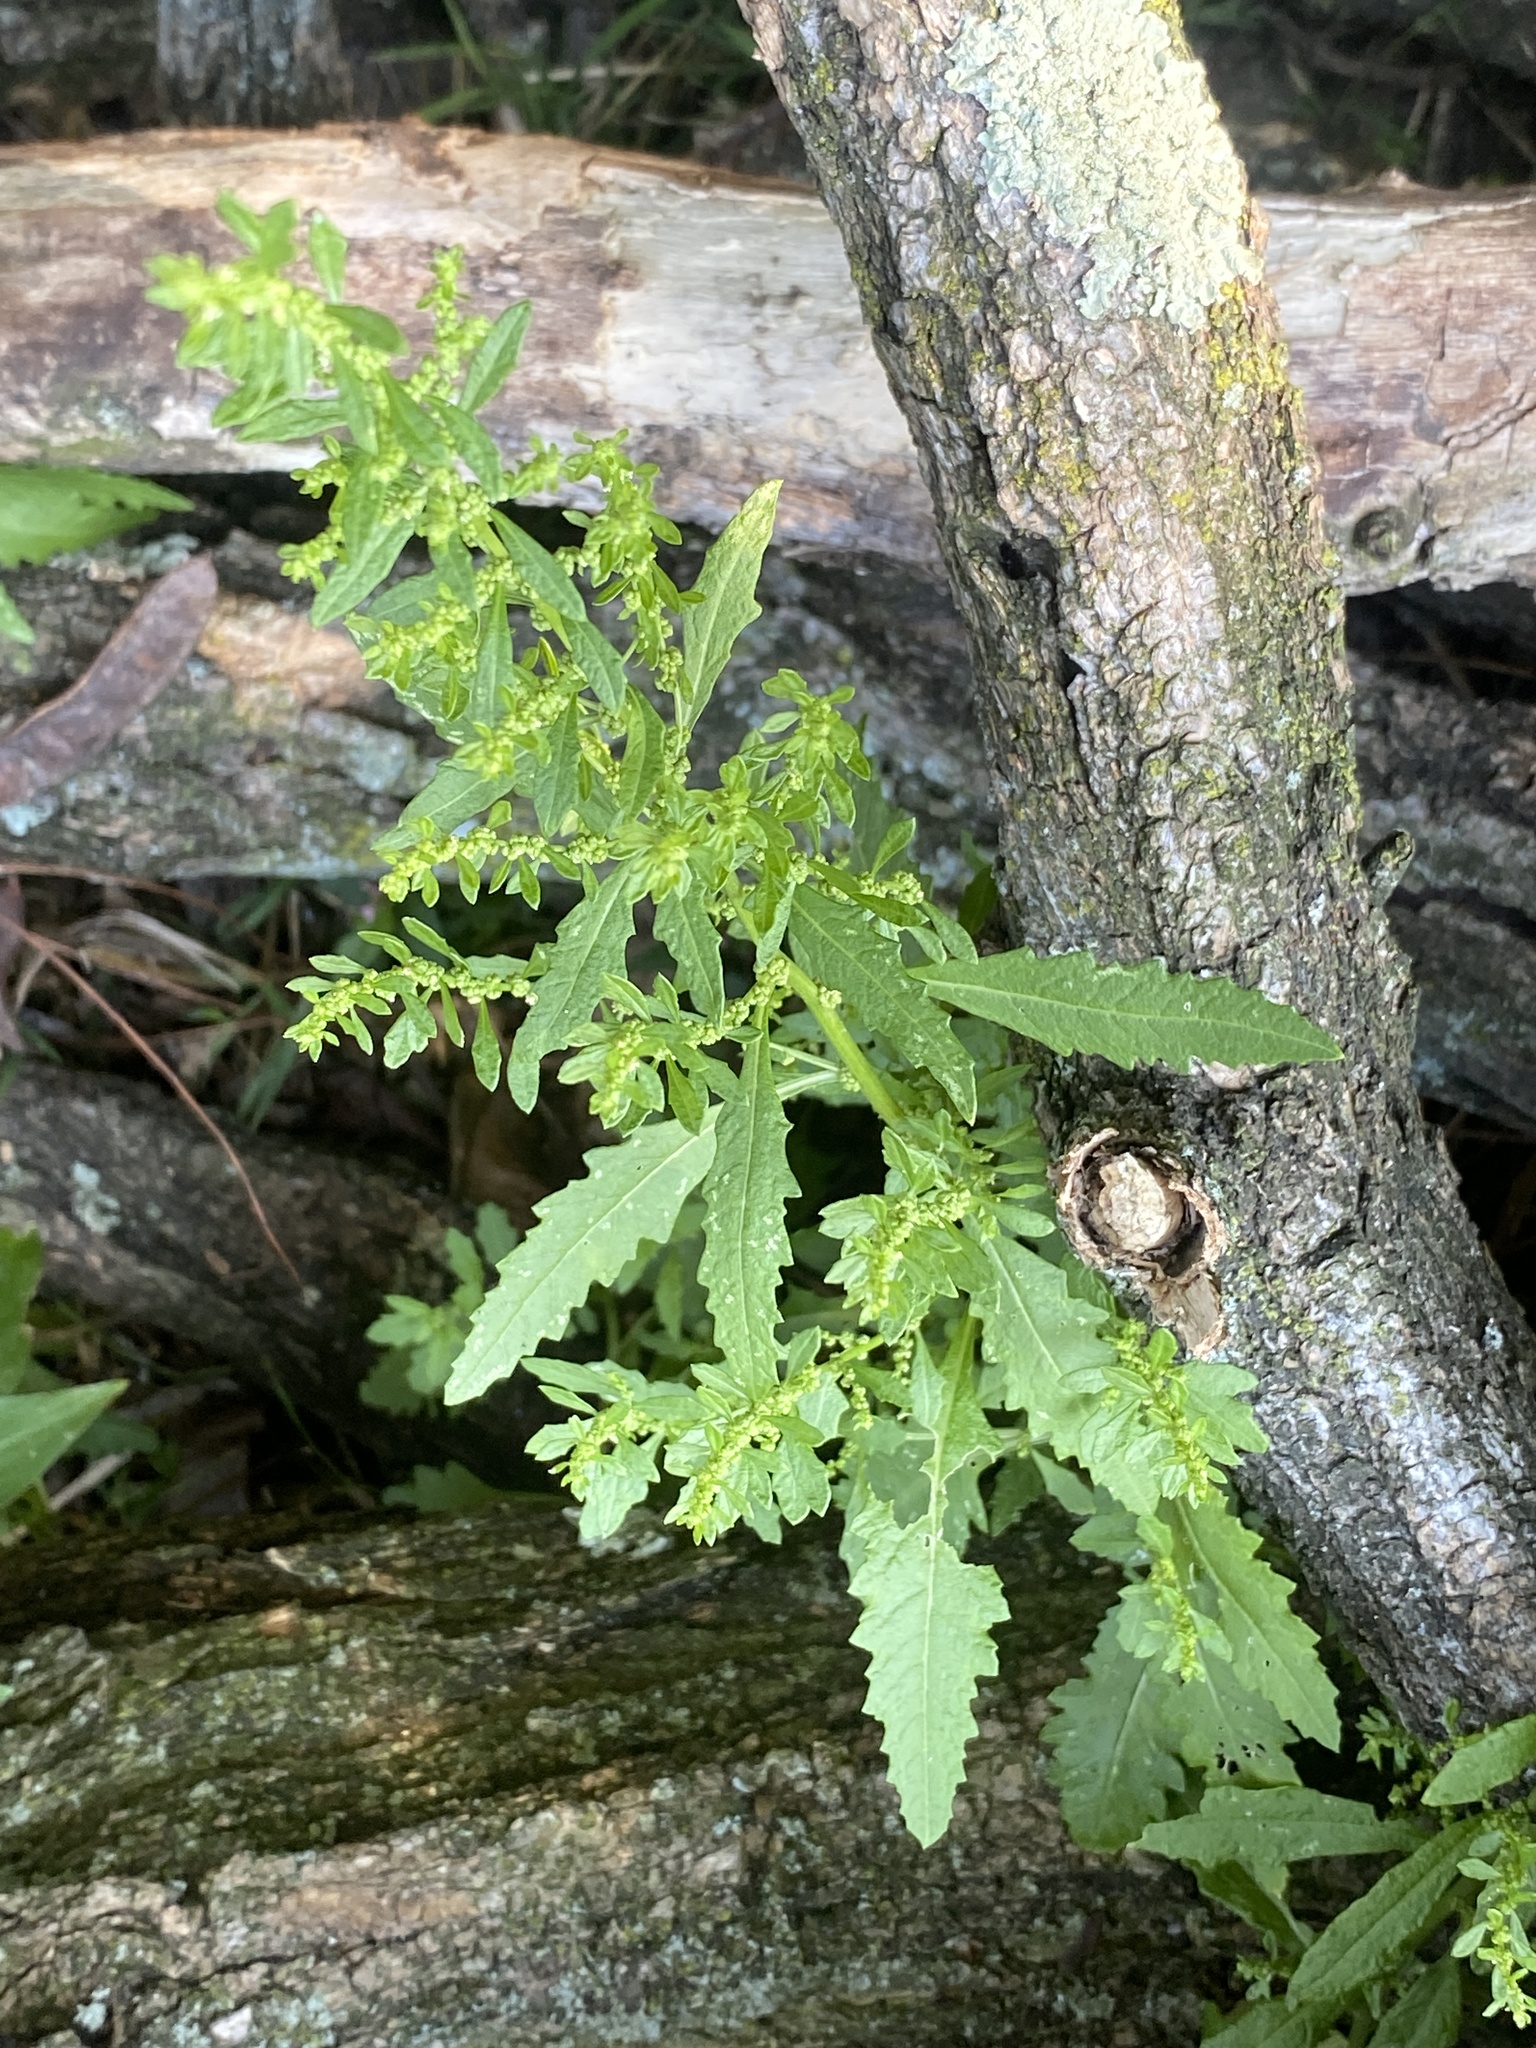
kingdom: Plantae
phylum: Tracheophyta
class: Magnoliopsida
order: Caryophyllales
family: Amaranthaceae
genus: Dysphania
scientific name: Dysphania ambrosioides
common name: Wormseed
